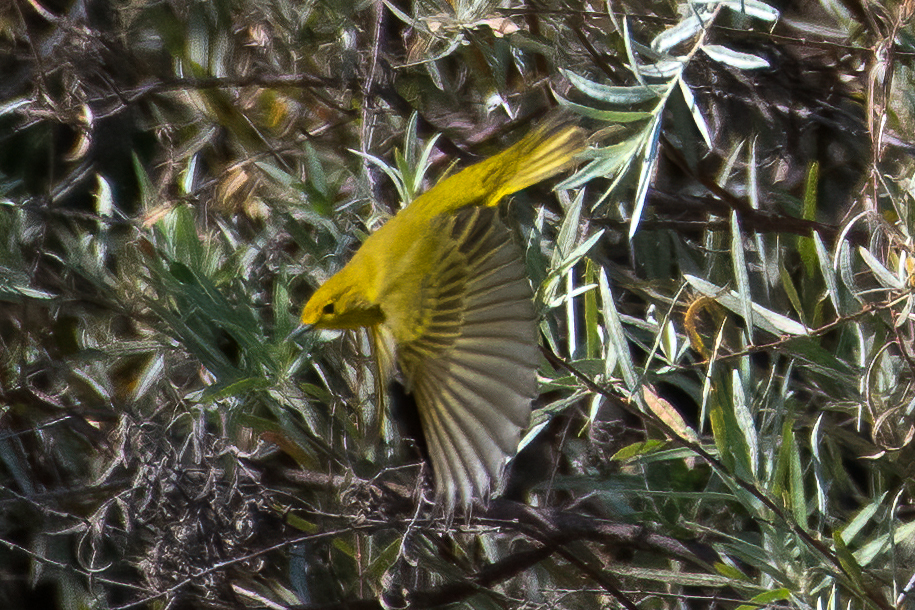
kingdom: Animalia
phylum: Chordata
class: Aves
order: Passeriformes
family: Parulidae
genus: Setophaga
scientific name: Setophaga petechia
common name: Yellow warbler
